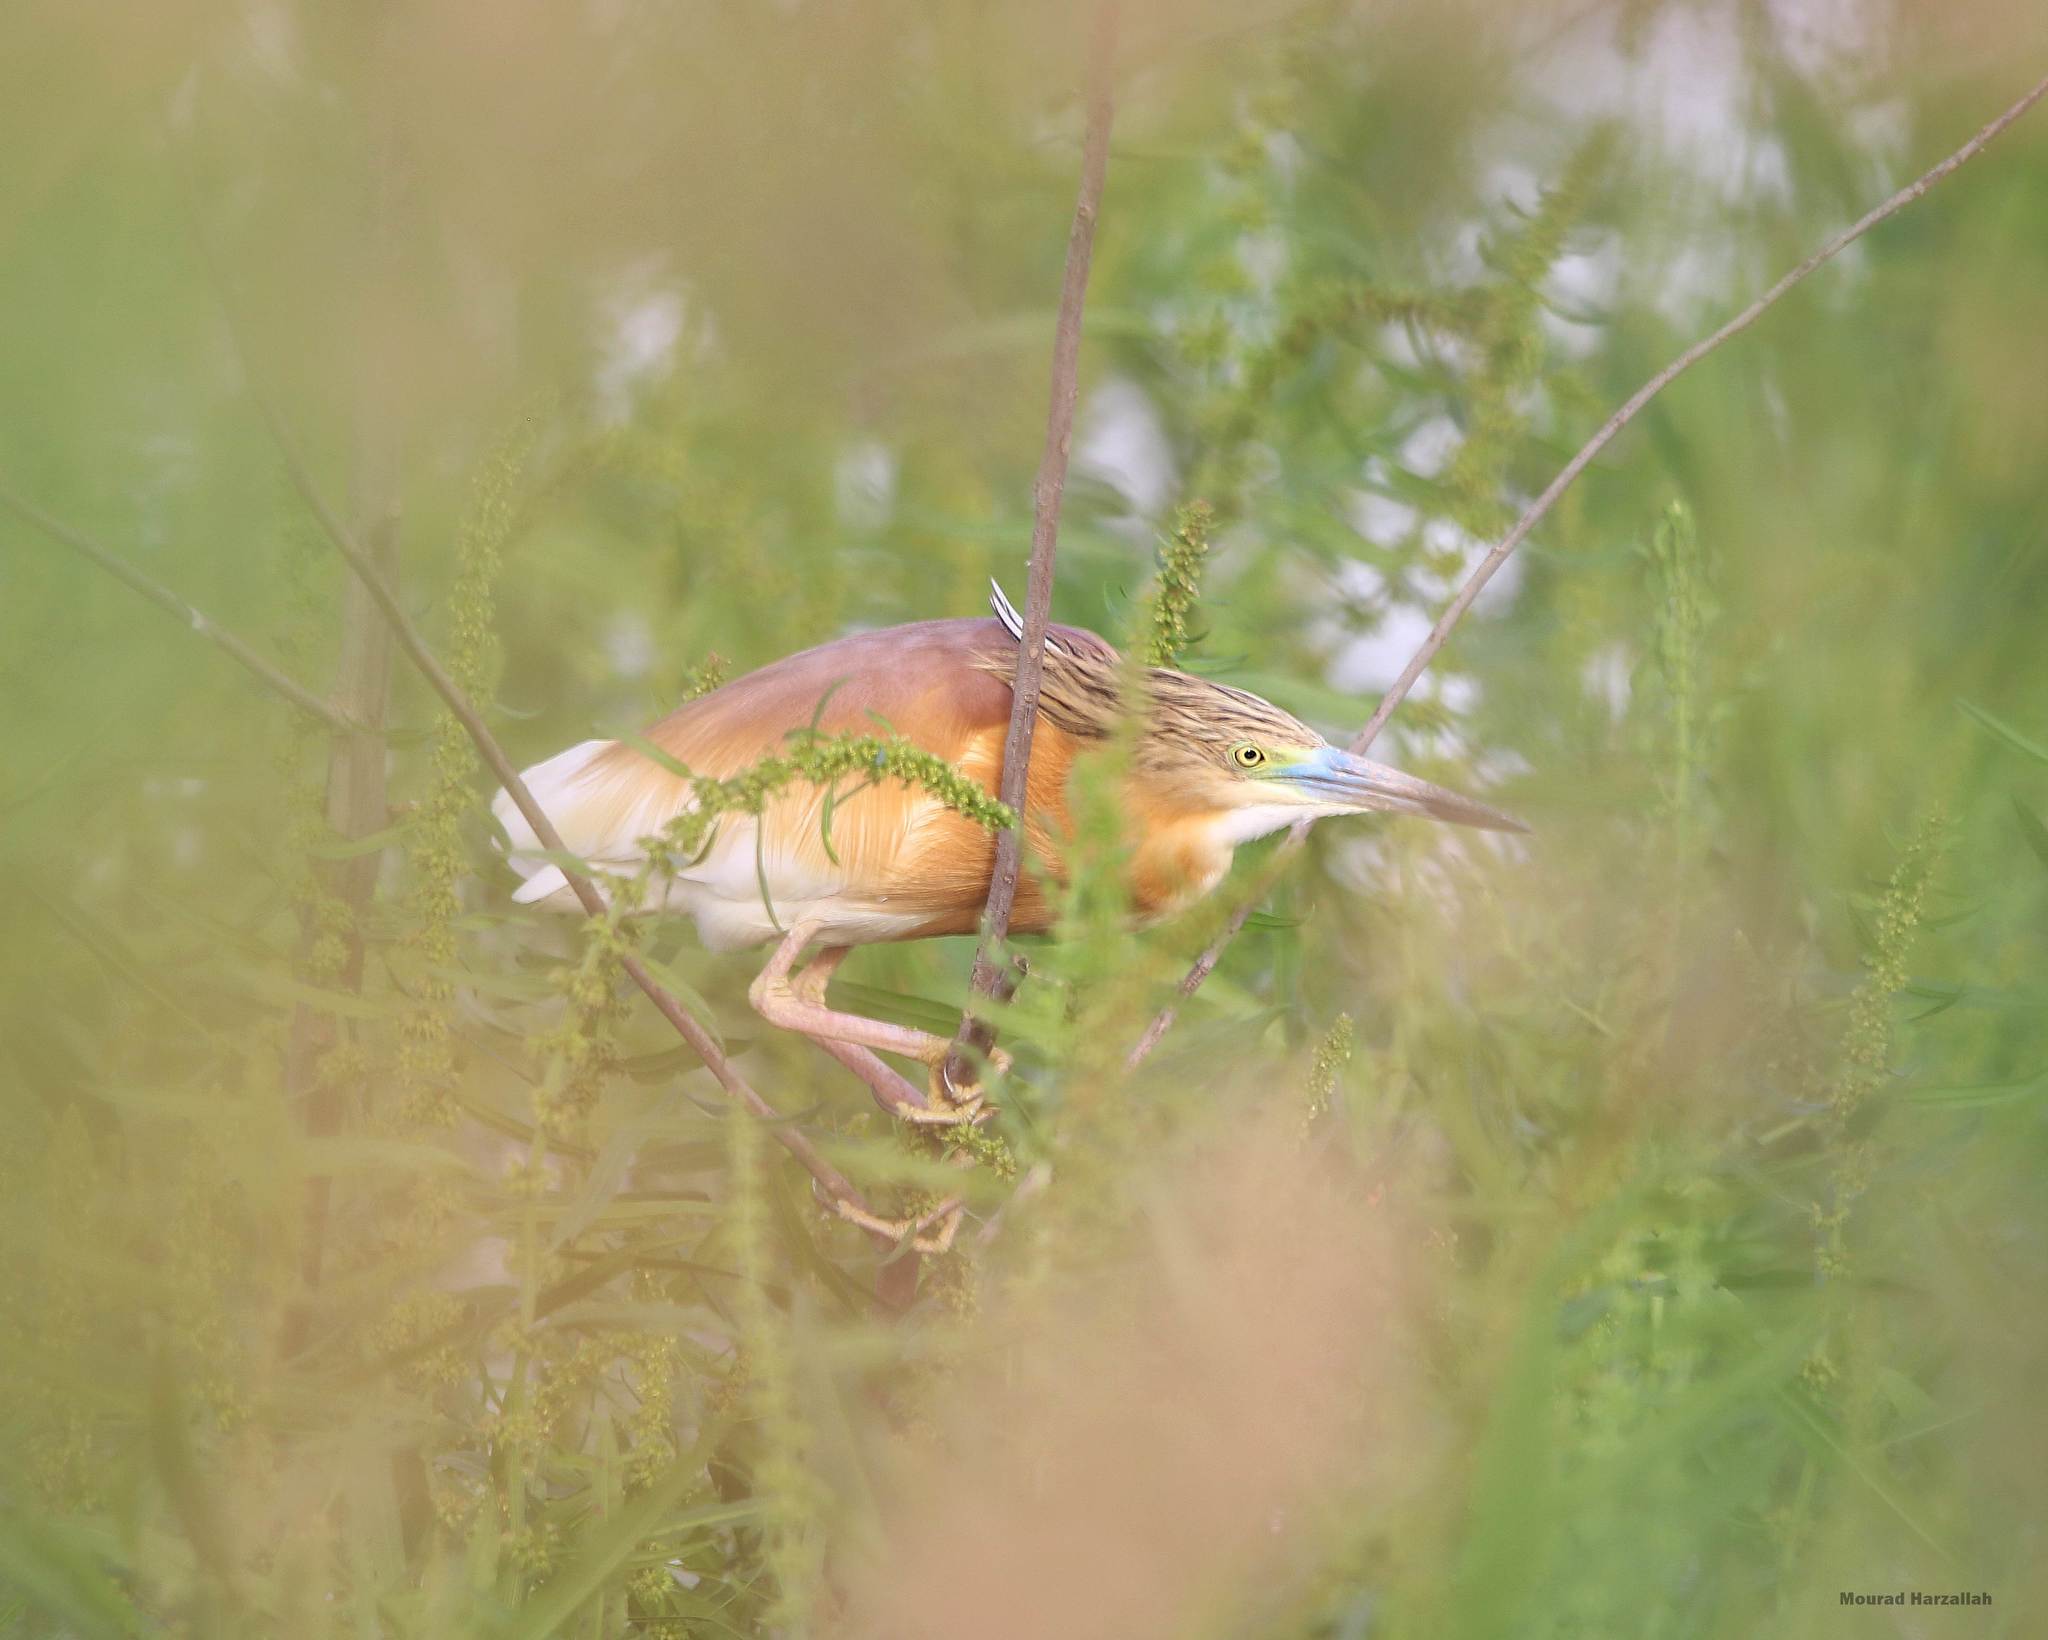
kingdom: Animalia
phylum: Chordata
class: Aves
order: Pelecaniformes
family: Ardeidae
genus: Ardeola
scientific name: Ardeola ralloides
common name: Squacco heron
